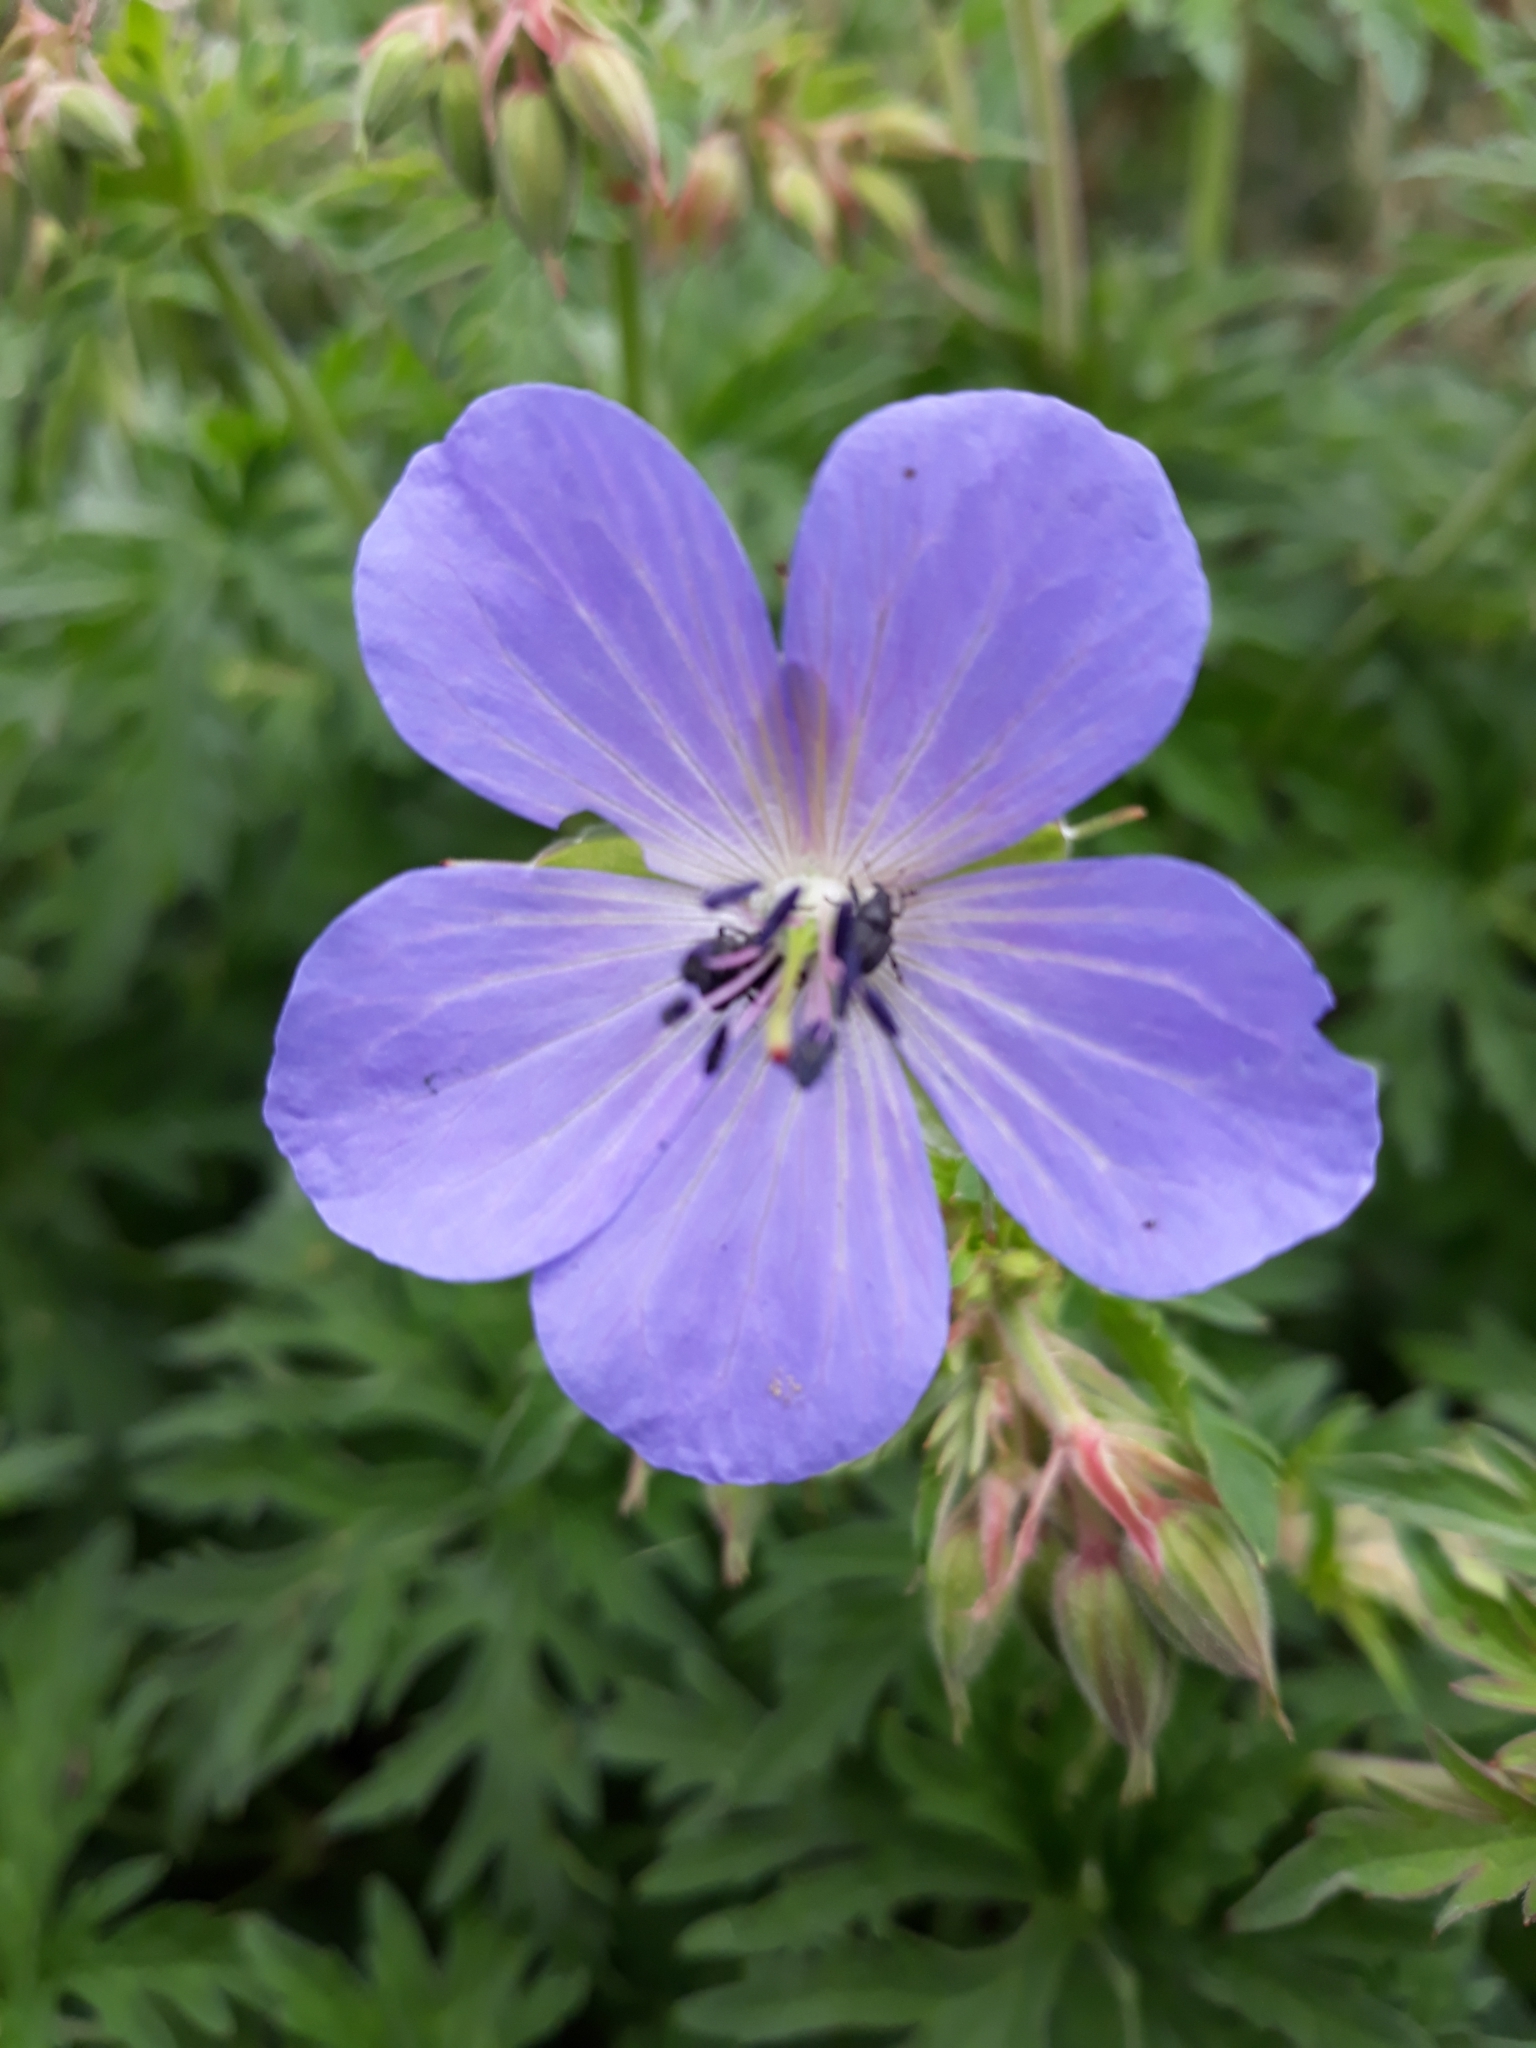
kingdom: Plantae
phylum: Tracheophyta
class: Magnoliopsida
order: Geraniales
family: Geraniaceae
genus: Geranium
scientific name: Geranium pratense
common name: Meadow crane's-bill
